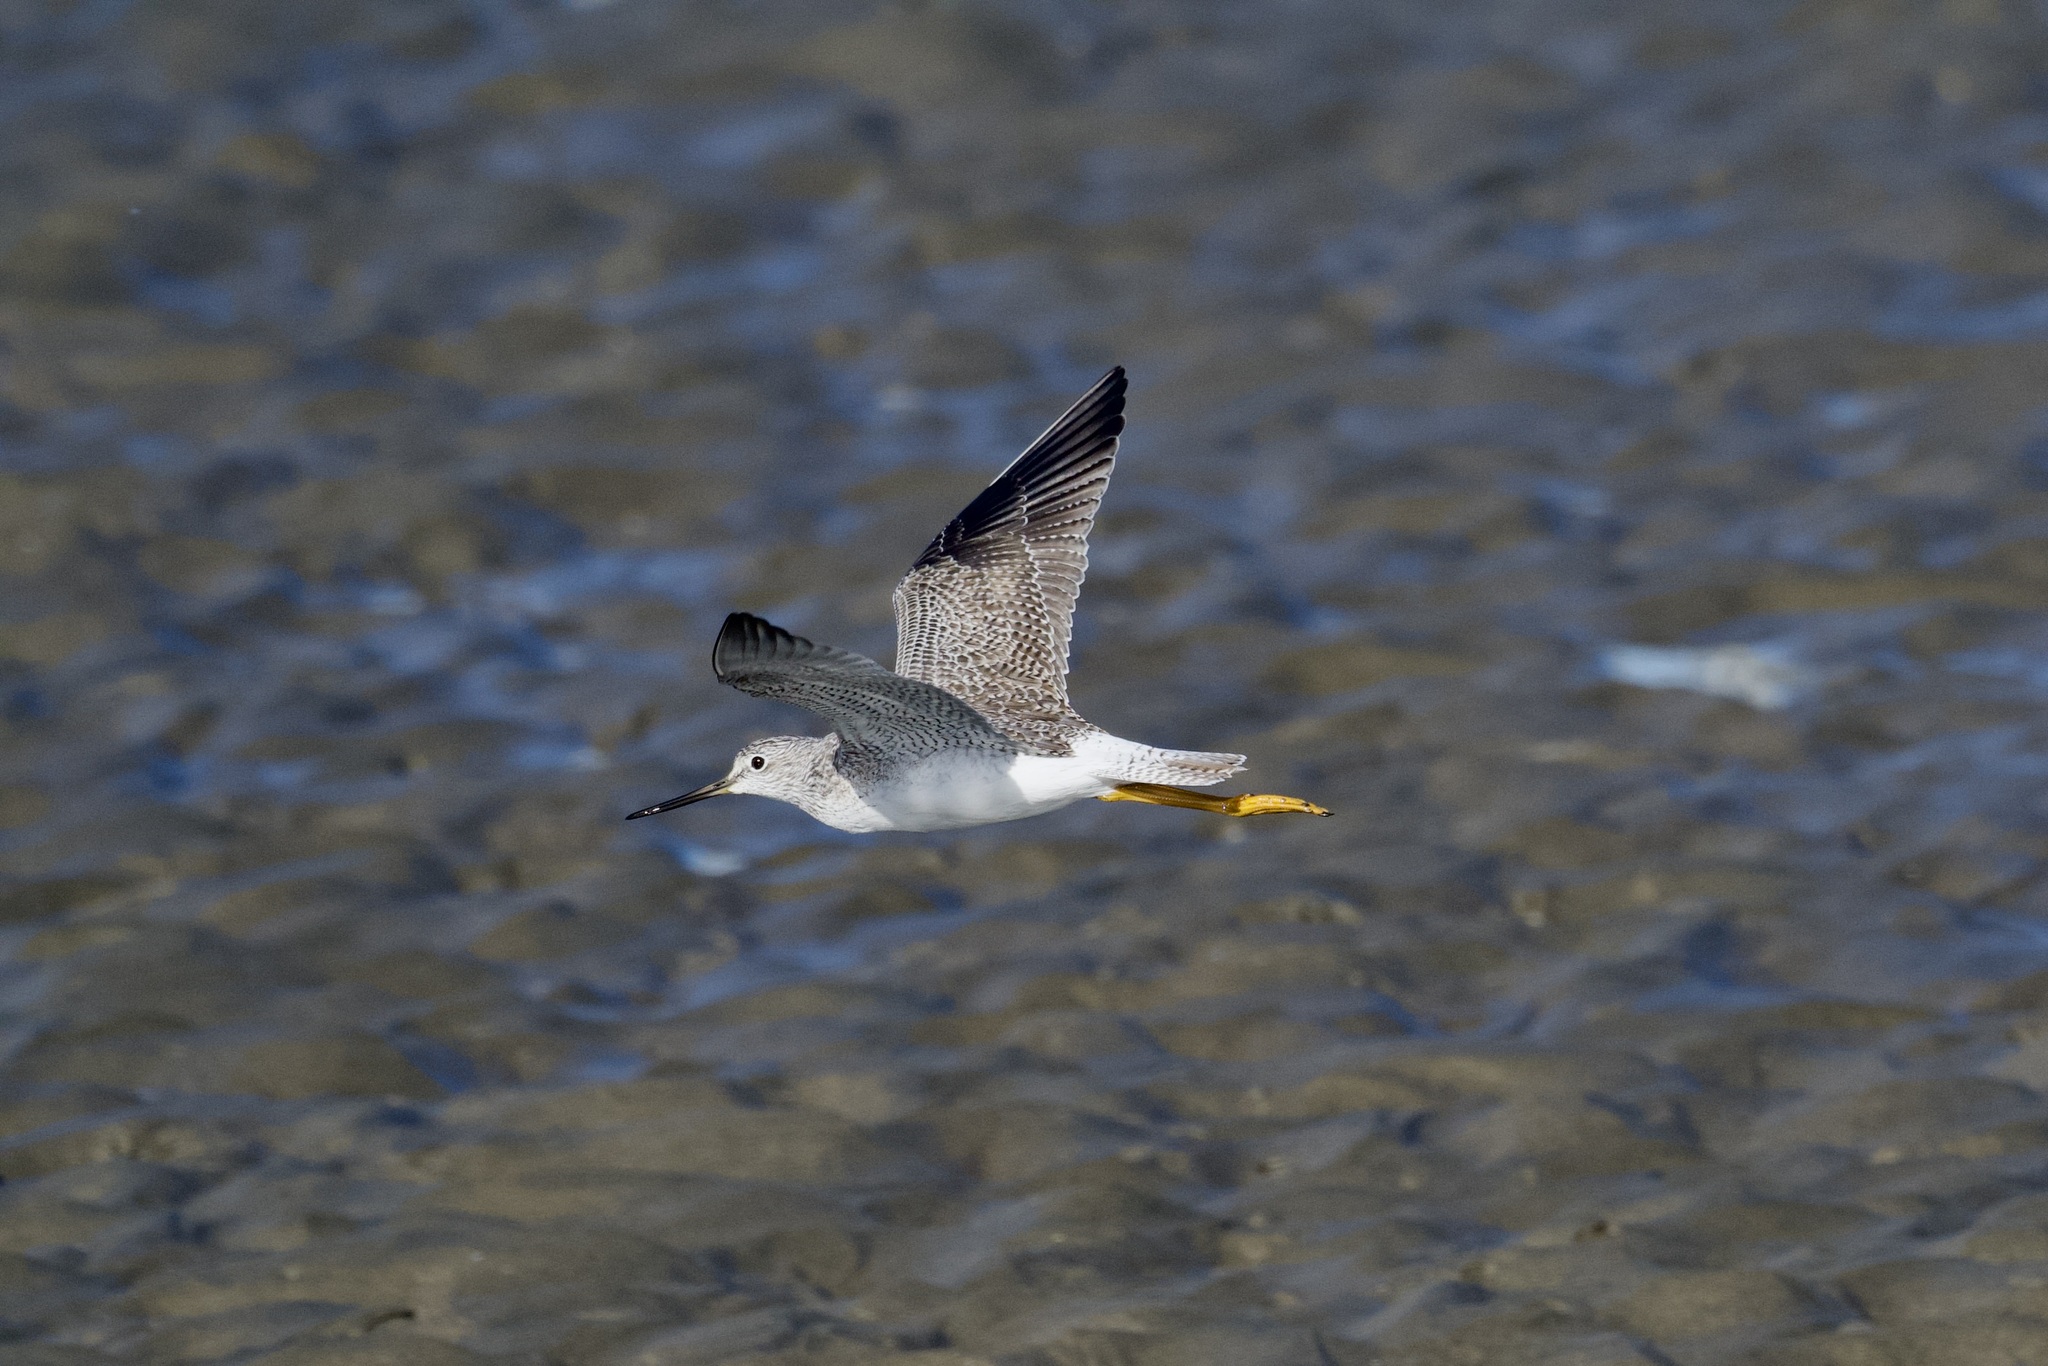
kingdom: Animalia
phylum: Chordata
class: Aves
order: Charadriiformes
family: Scolopacidae
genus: Tringa
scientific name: Tringa melanoleuca
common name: Greater yellowlegs
